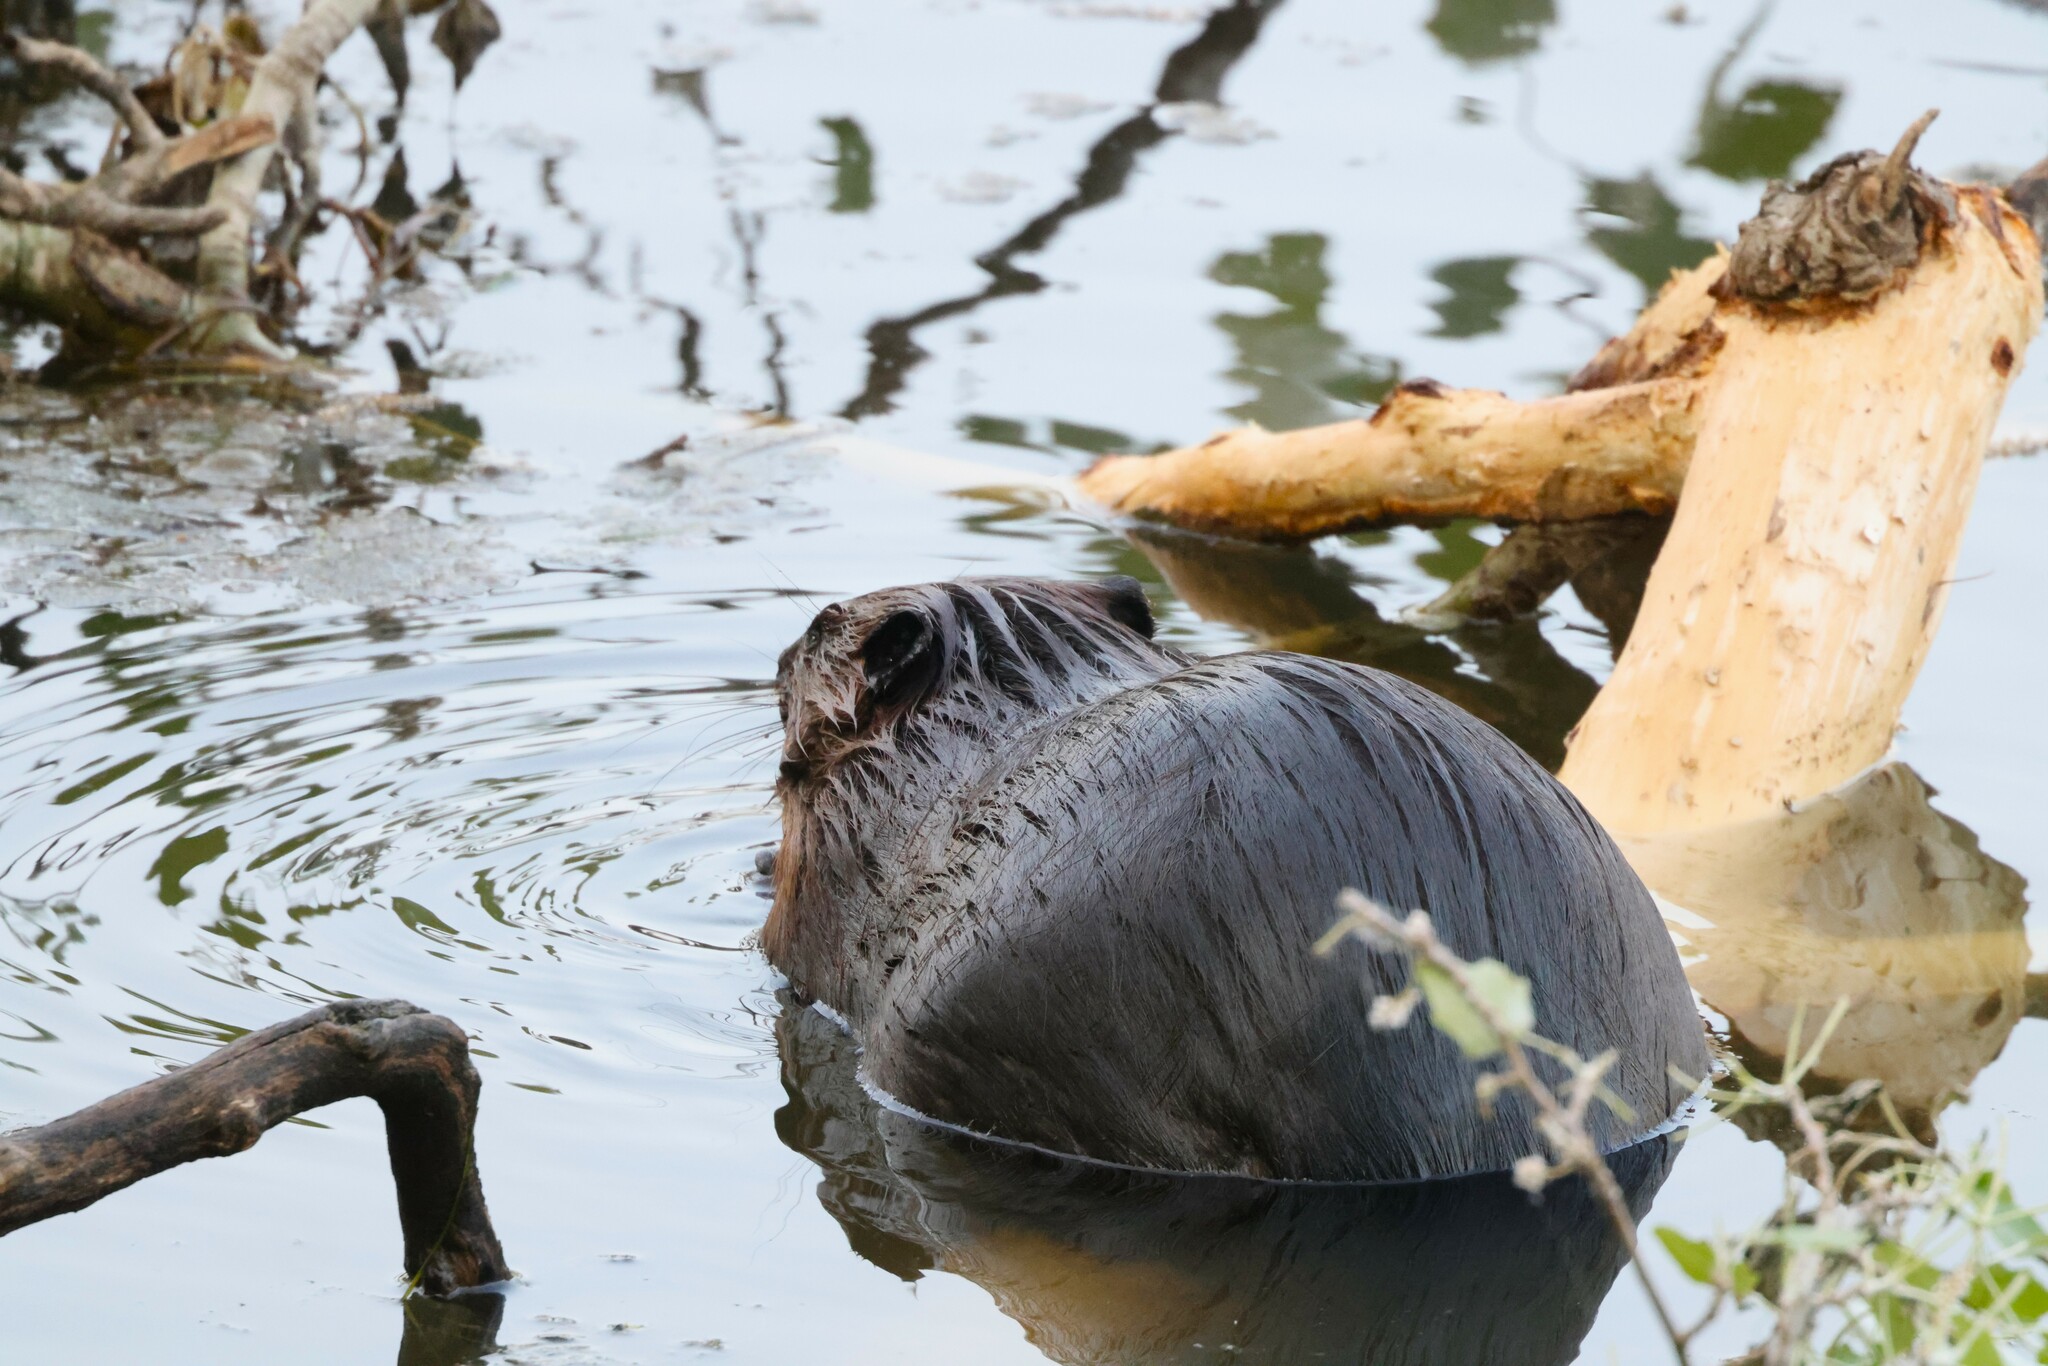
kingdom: Animalia
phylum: Chordata
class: Mammalia
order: Rodentia
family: Castoridae
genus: Castor
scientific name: Castor canadensis
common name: American beaver
